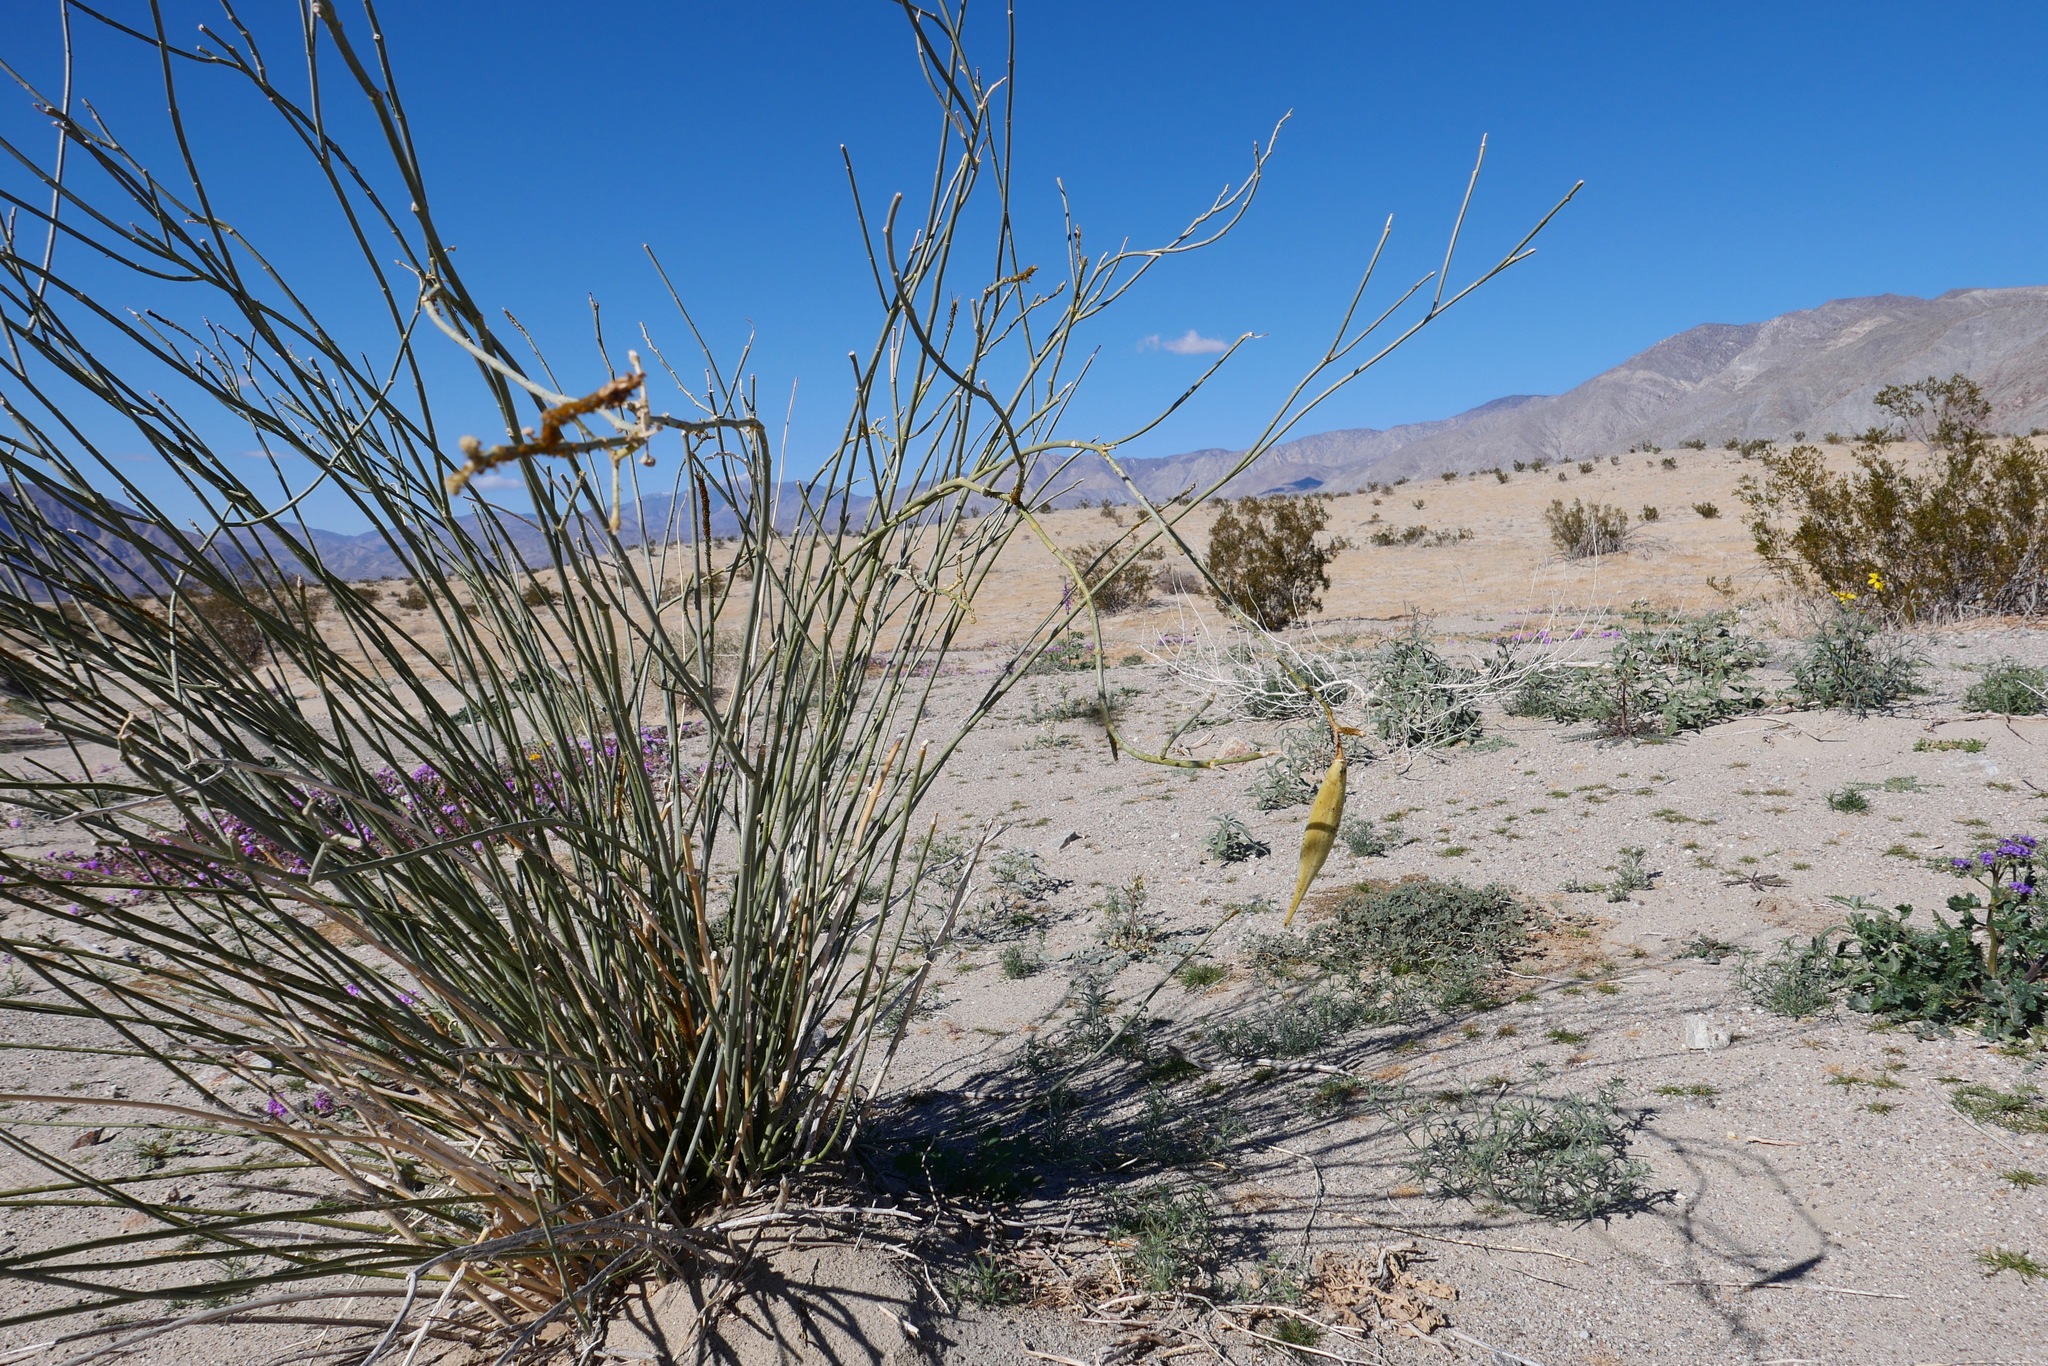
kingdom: Plantae
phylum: Tracheophyta
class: Magnoliopsida
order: Gentianales
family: Apocynaceae
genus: Asclepias
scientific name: Asclepias subulata
